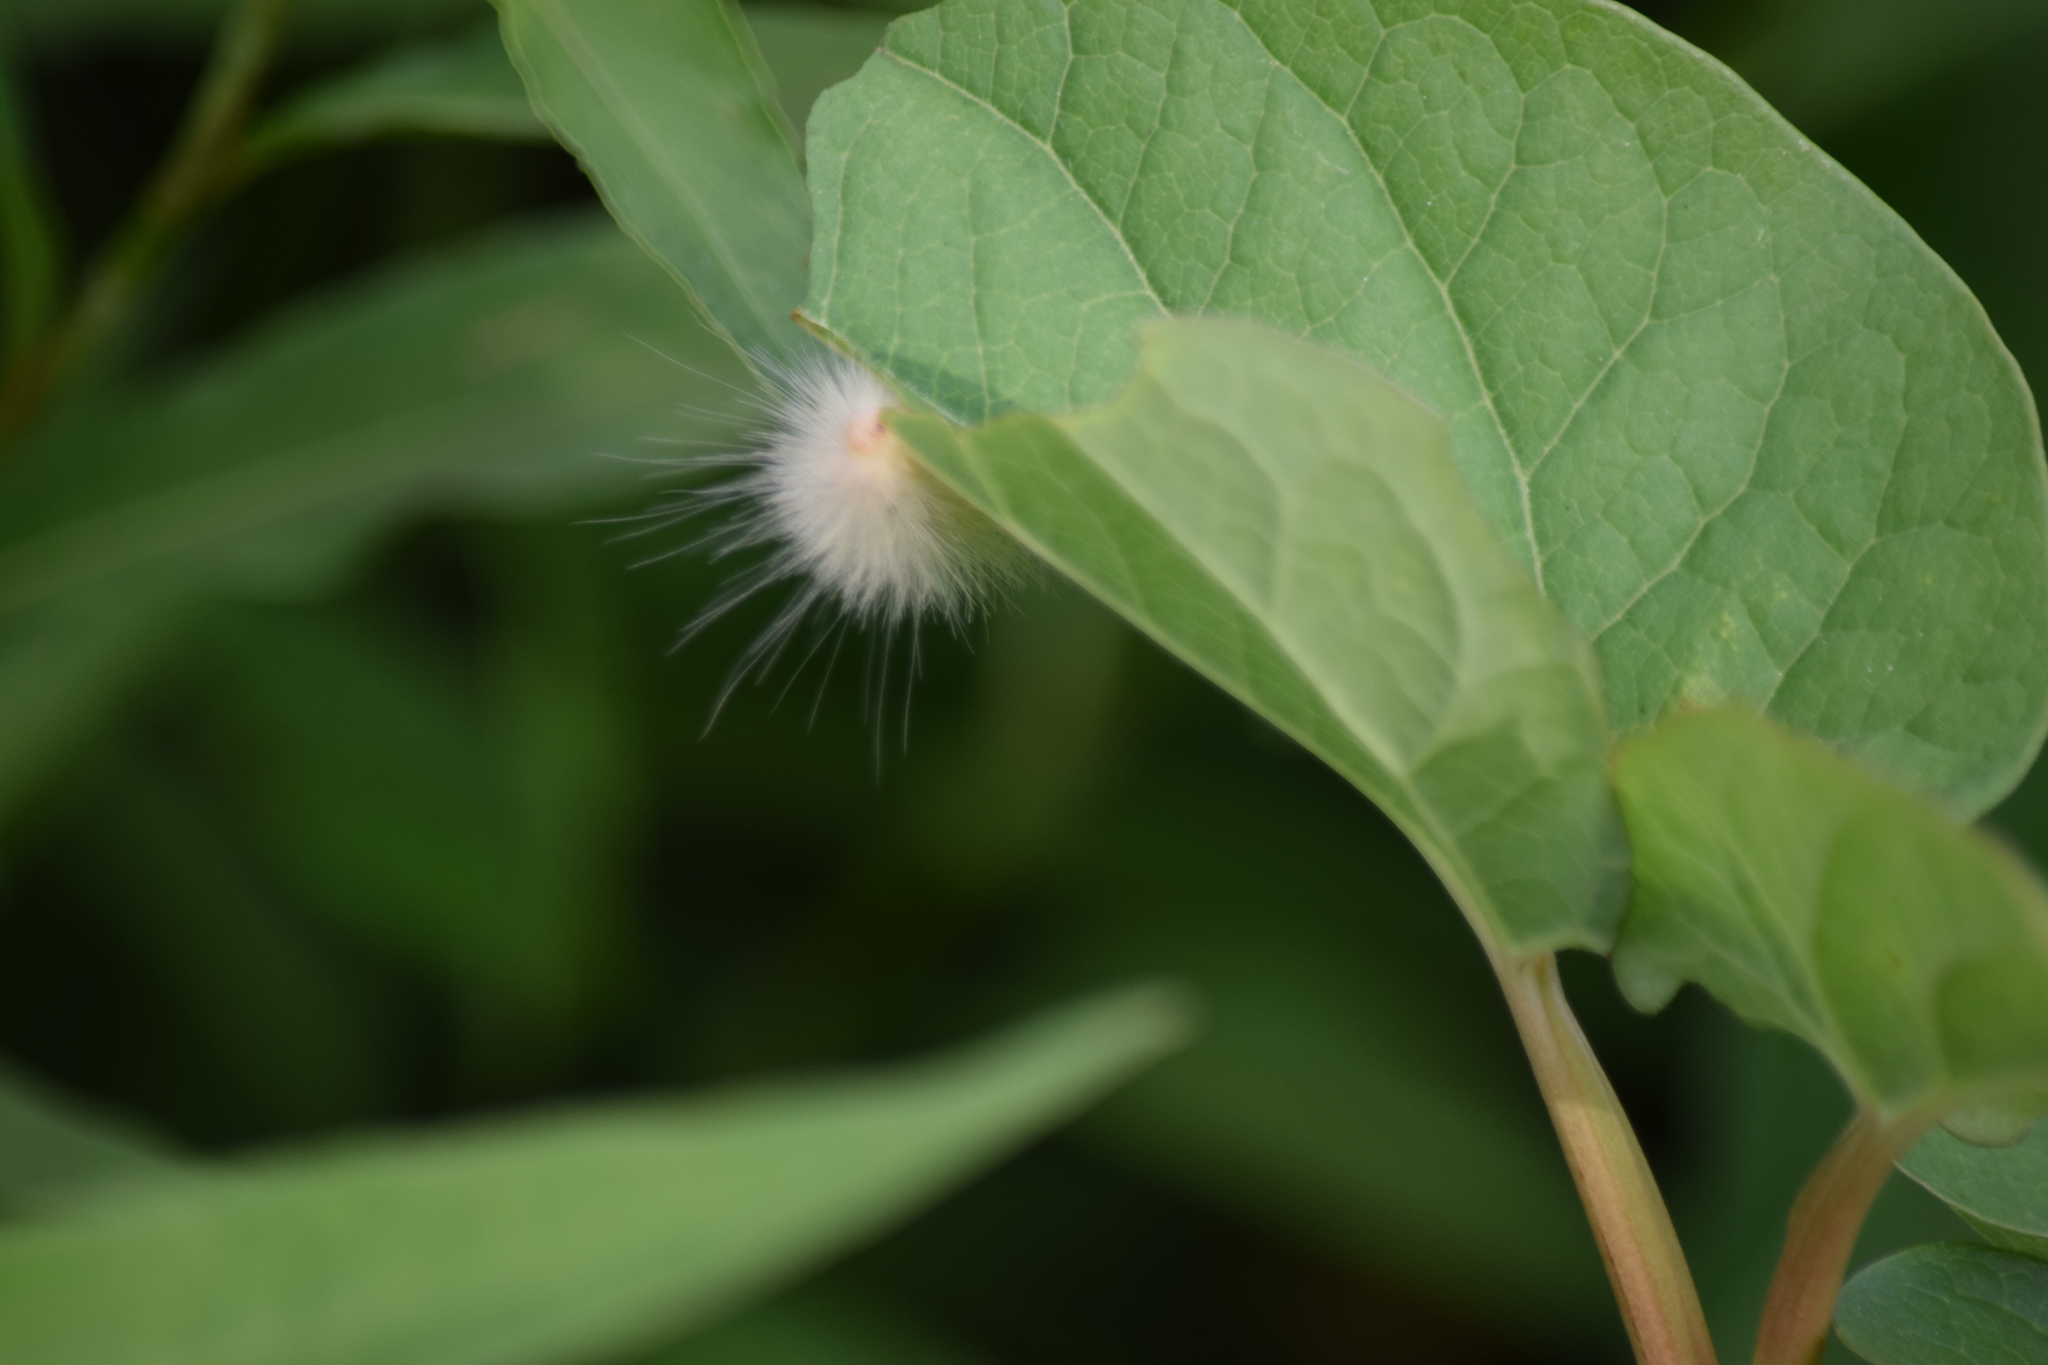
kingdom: Animalia
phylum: Arthropoda
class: Insecta
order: Lepidoptera
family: Erebidae
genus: Spilosoma
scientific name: Spilosoma virginica
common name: Virginia tiger moth
